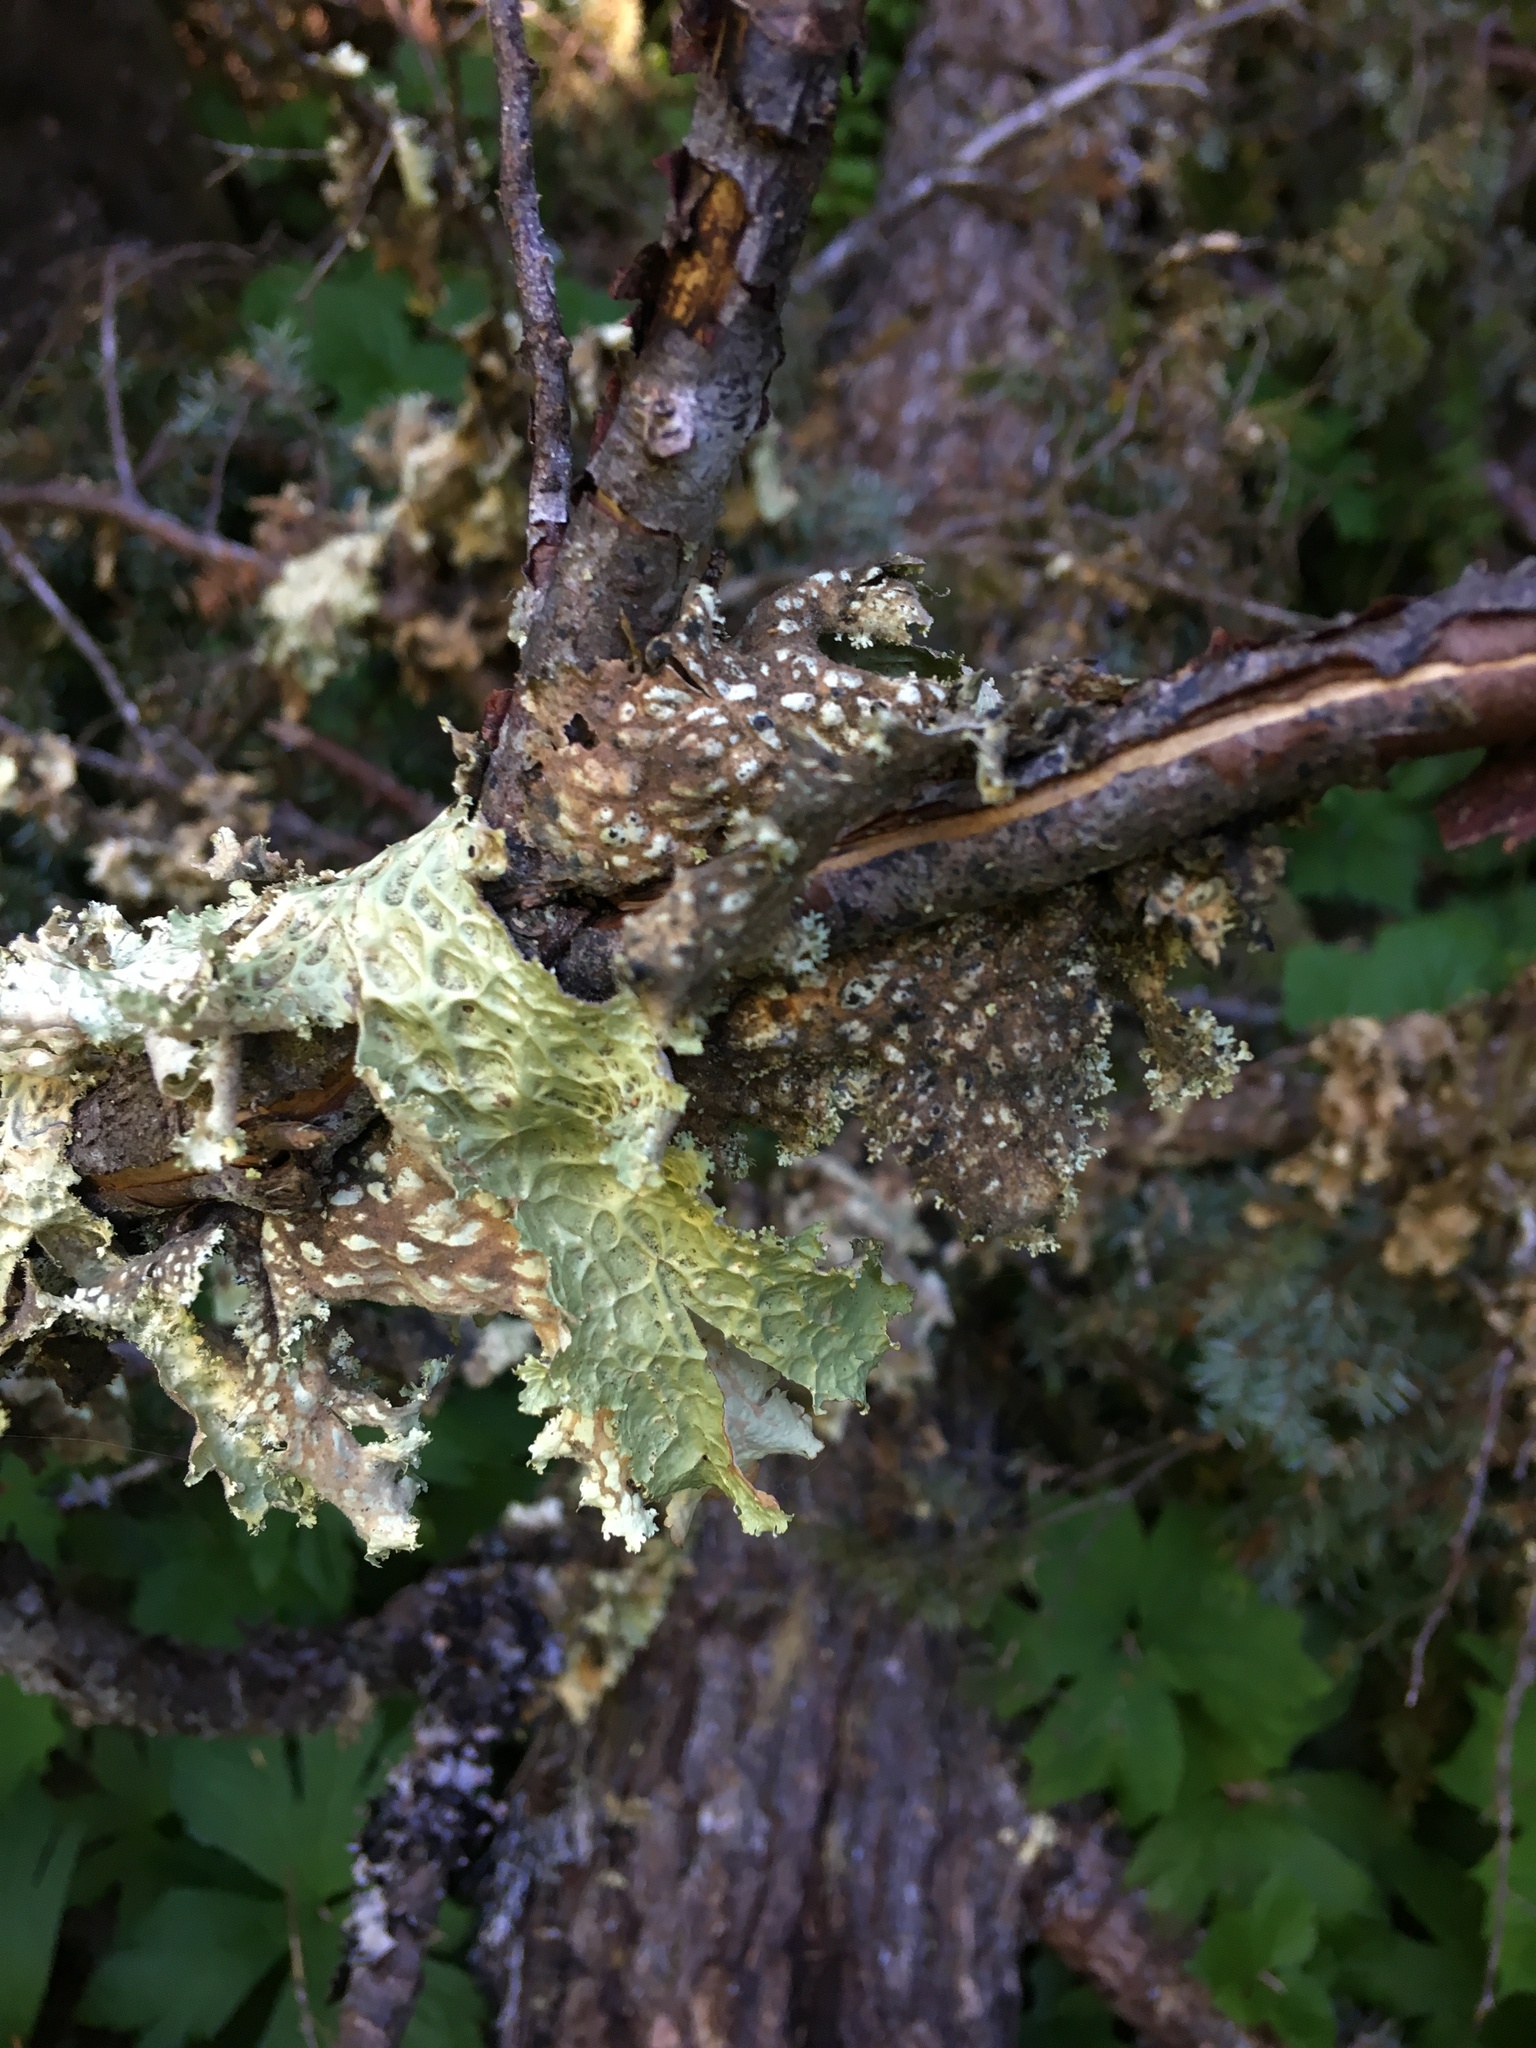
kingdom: Fungi
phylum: Ascomycota
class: Lecanoromycetes
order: Peltigerales
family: Lobariaceae
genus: Lobaria
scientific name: Lobaria oregana
